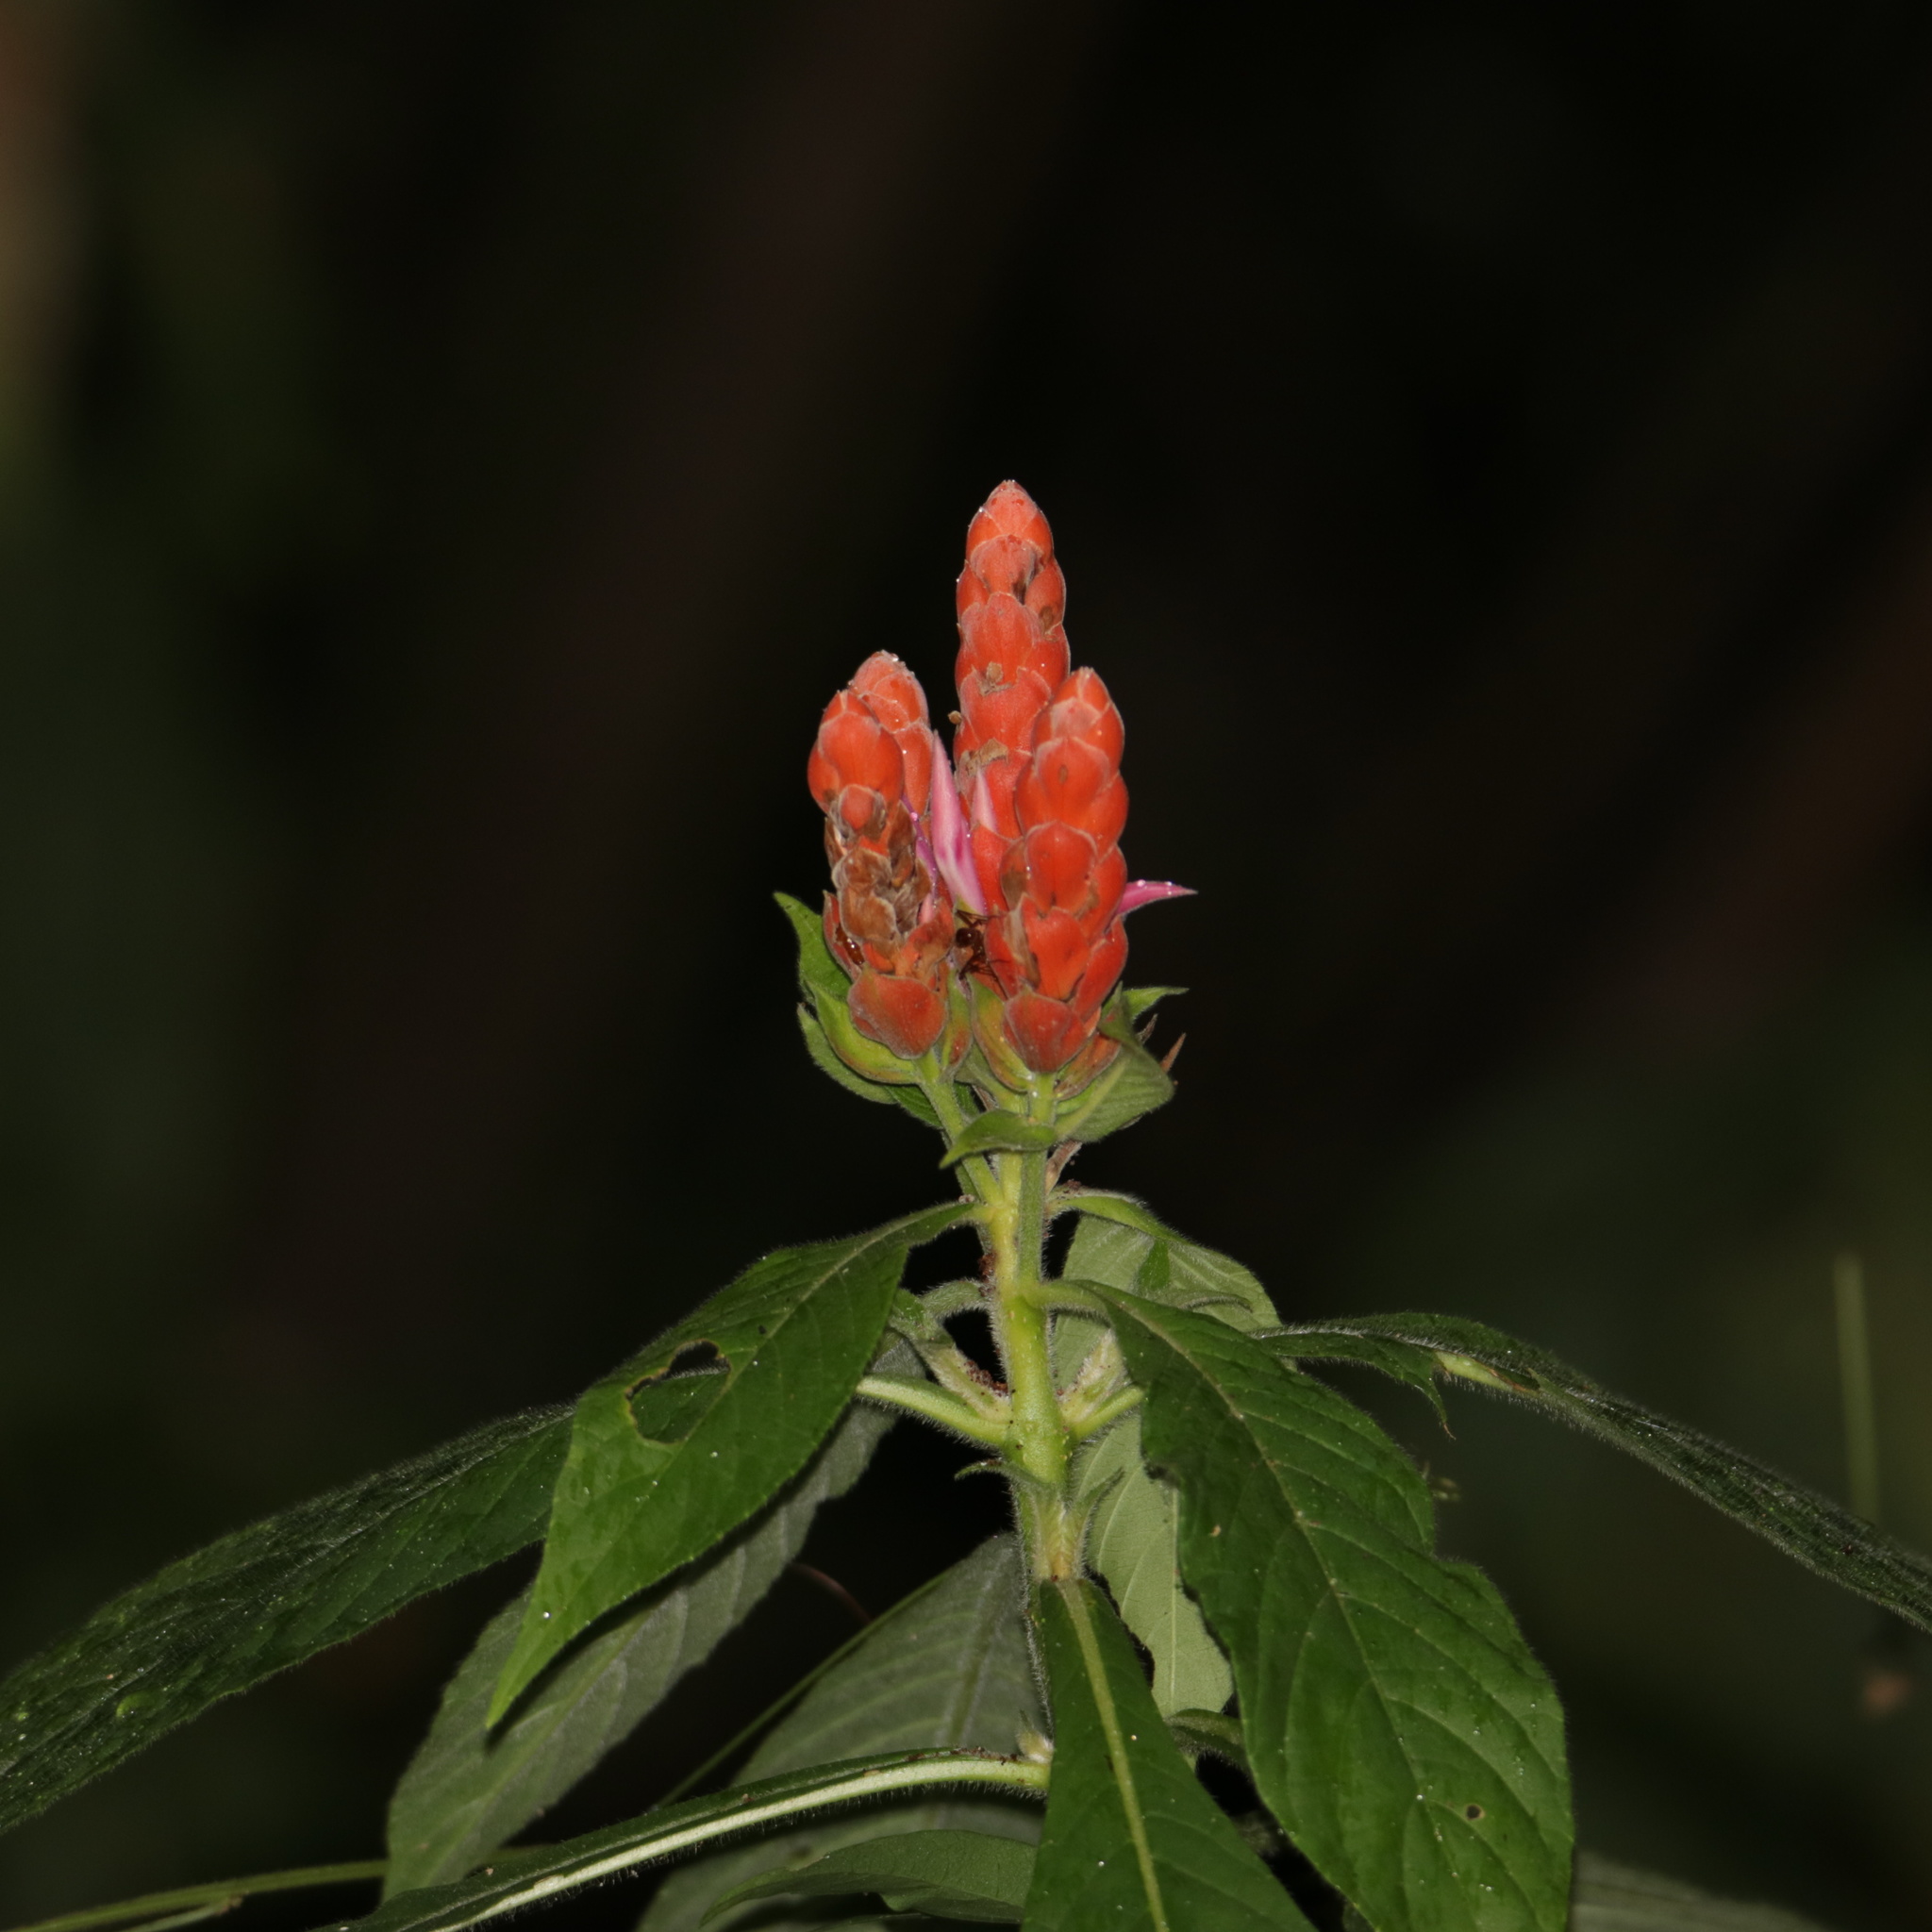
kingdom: Plantae
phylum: Tracheophyta
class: Magnoliopsida
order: Lamiales
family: Acanthaceae
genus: Aphelandra
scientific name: Aphelandra sinclairiana
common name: Coral aphelandra
